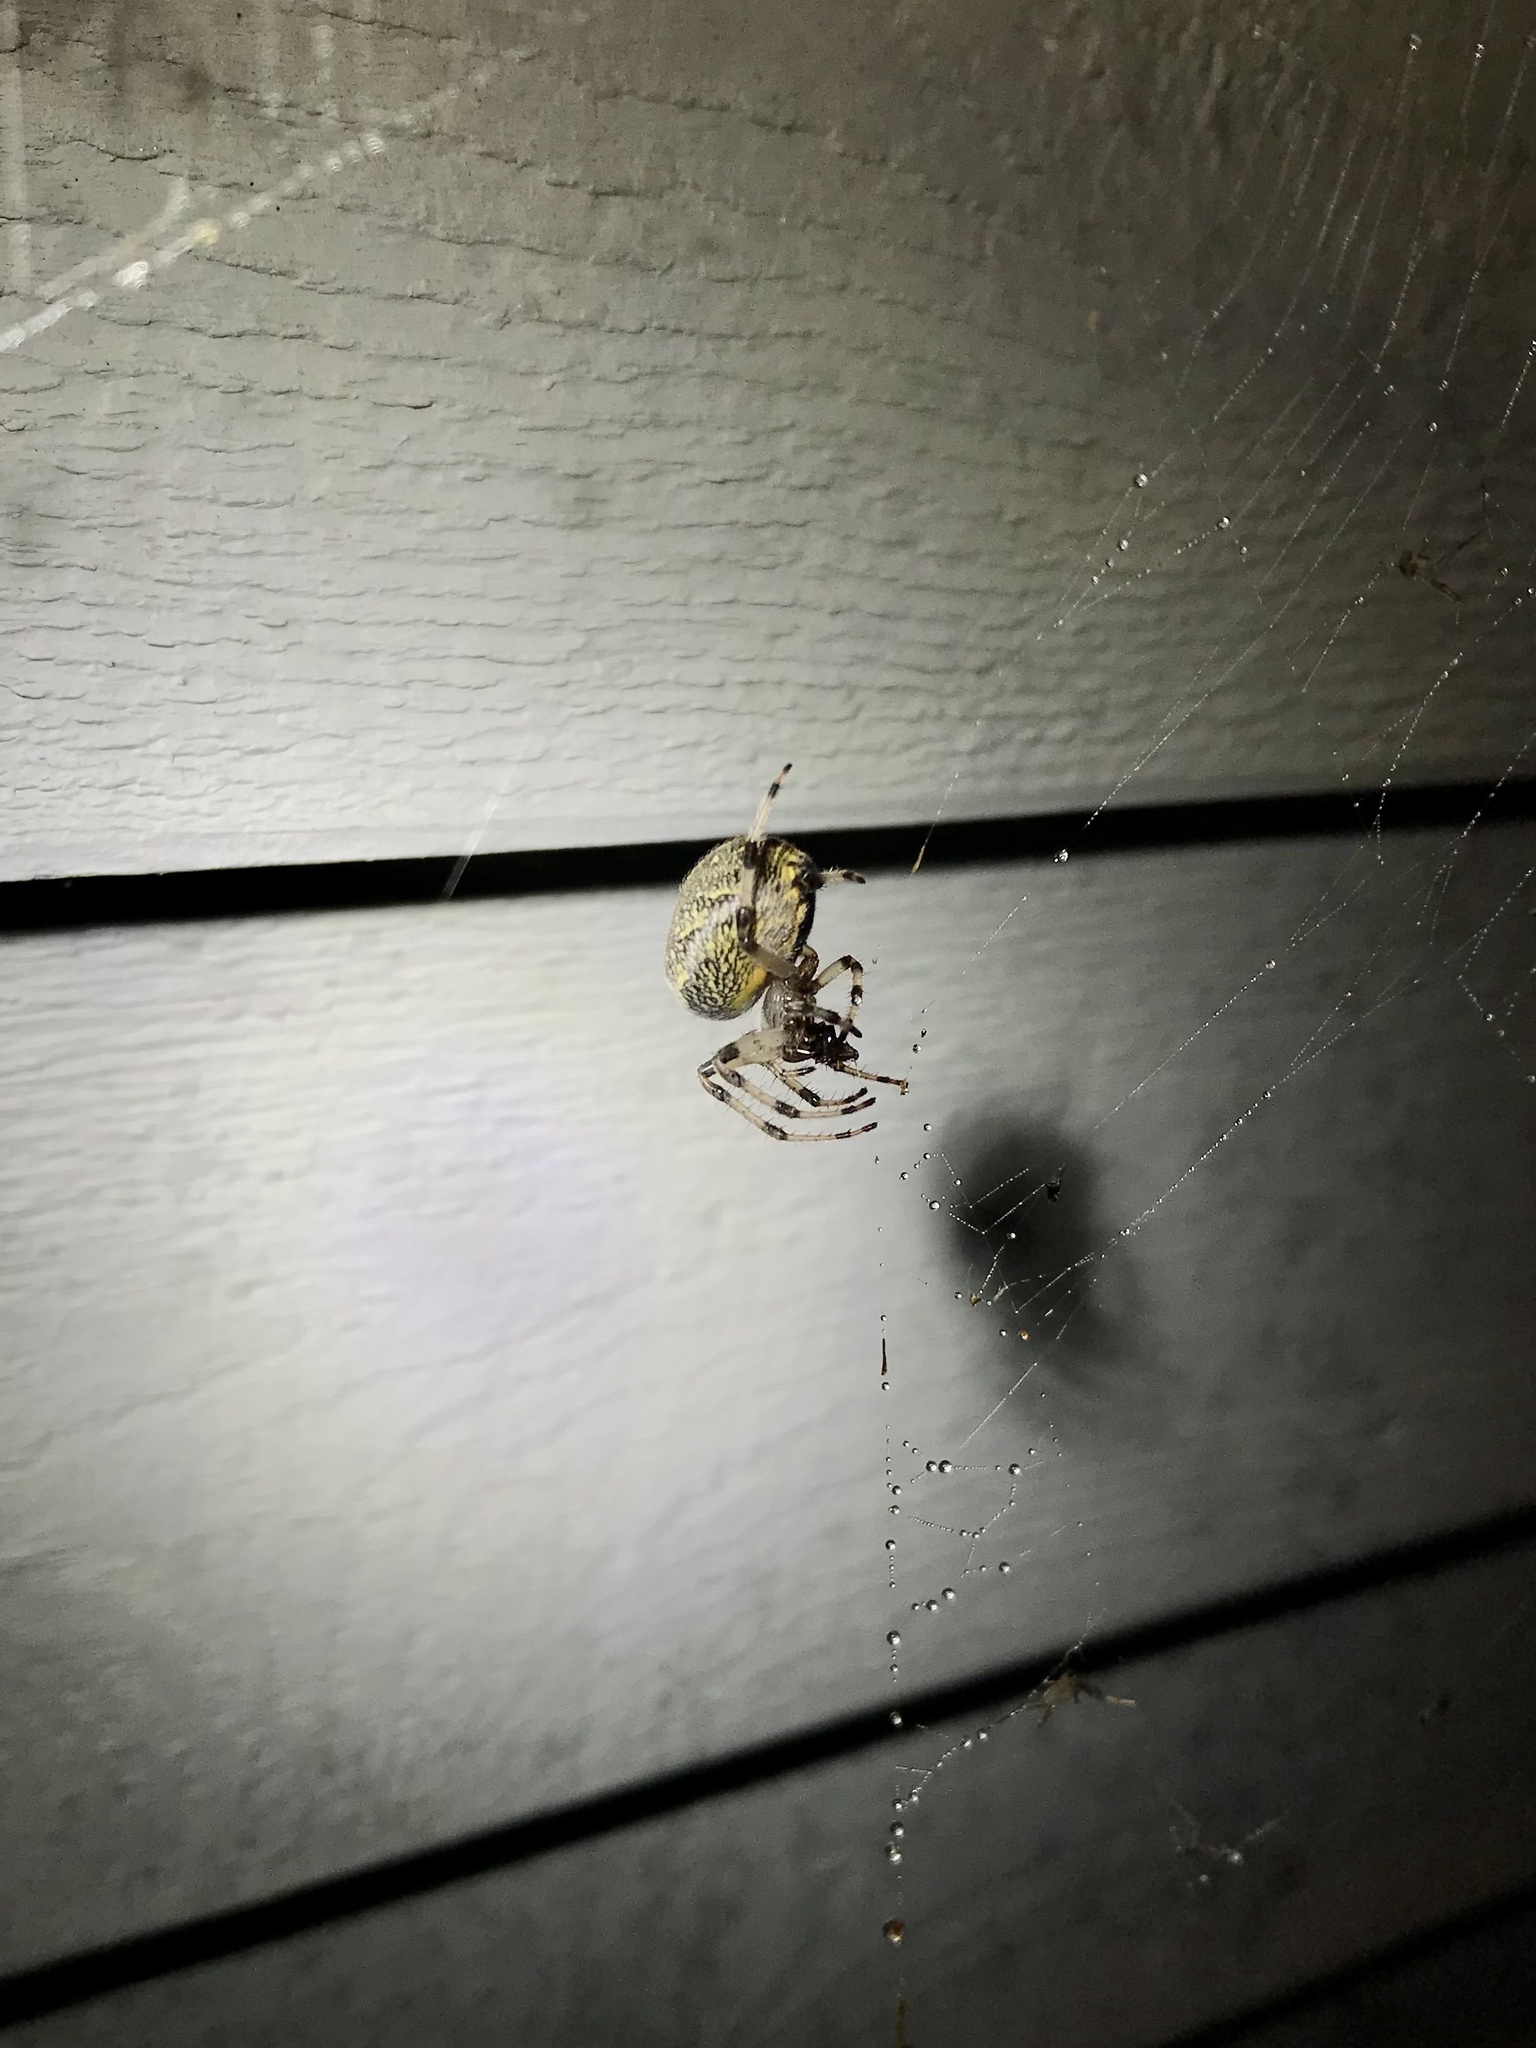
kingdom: Animalia
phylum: Arthropoda
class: Arachnida
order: Araneae
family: Araneidae
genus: Araneus
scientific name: Araneus marmoreus
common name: Marbled orbweaver
